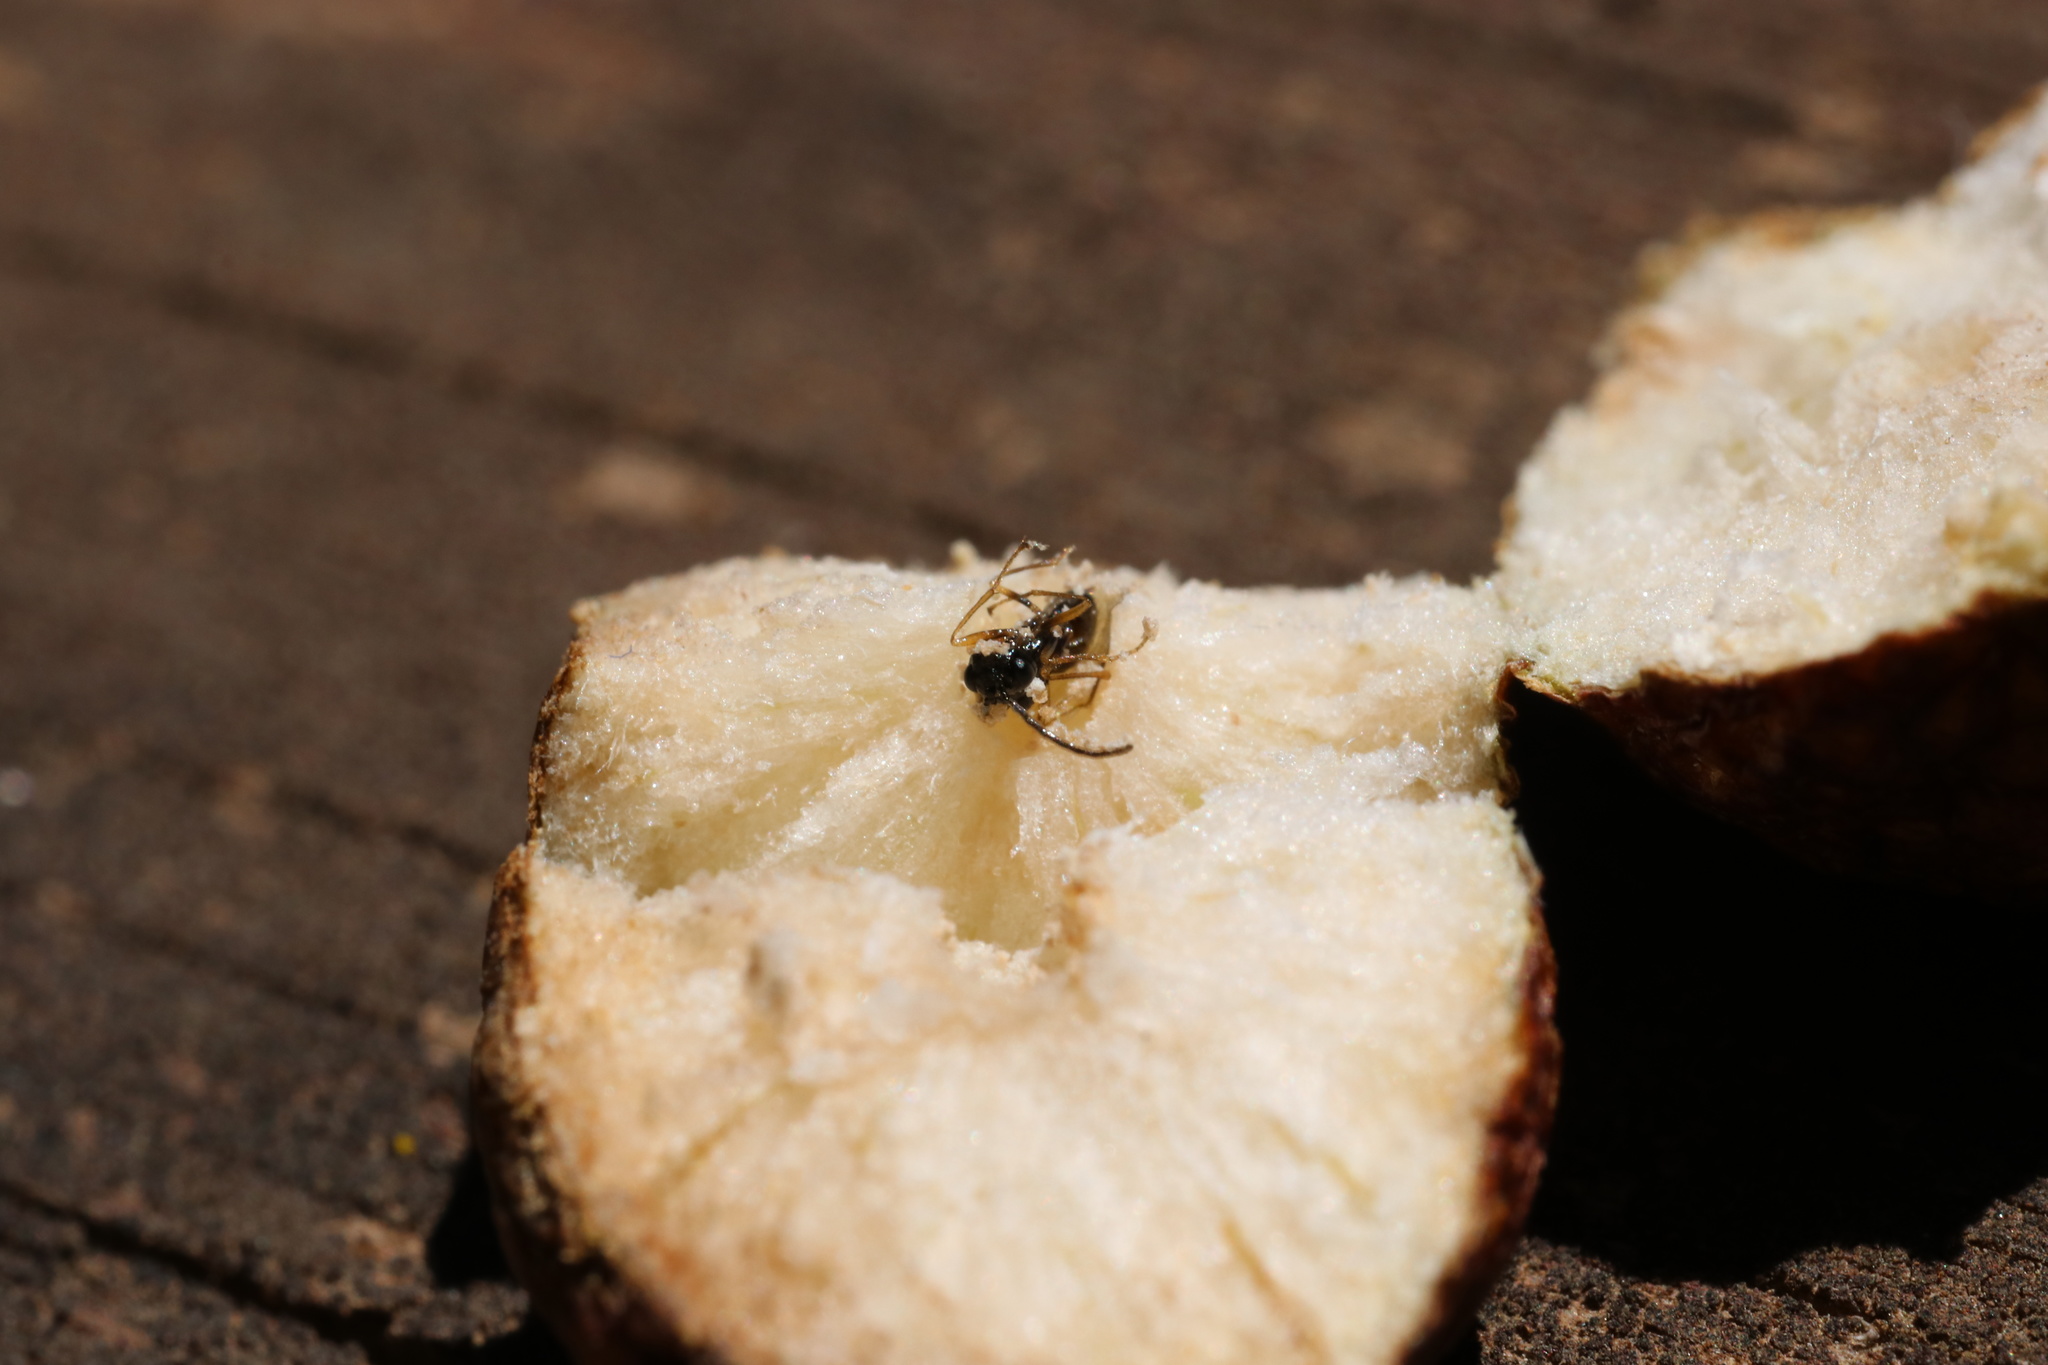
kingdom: Animalia
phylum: Arthropoda
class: Insecta
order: Hymenoptera
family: Pteromalidae
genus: Aditrochus
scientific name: Aditrochus coihuensis
